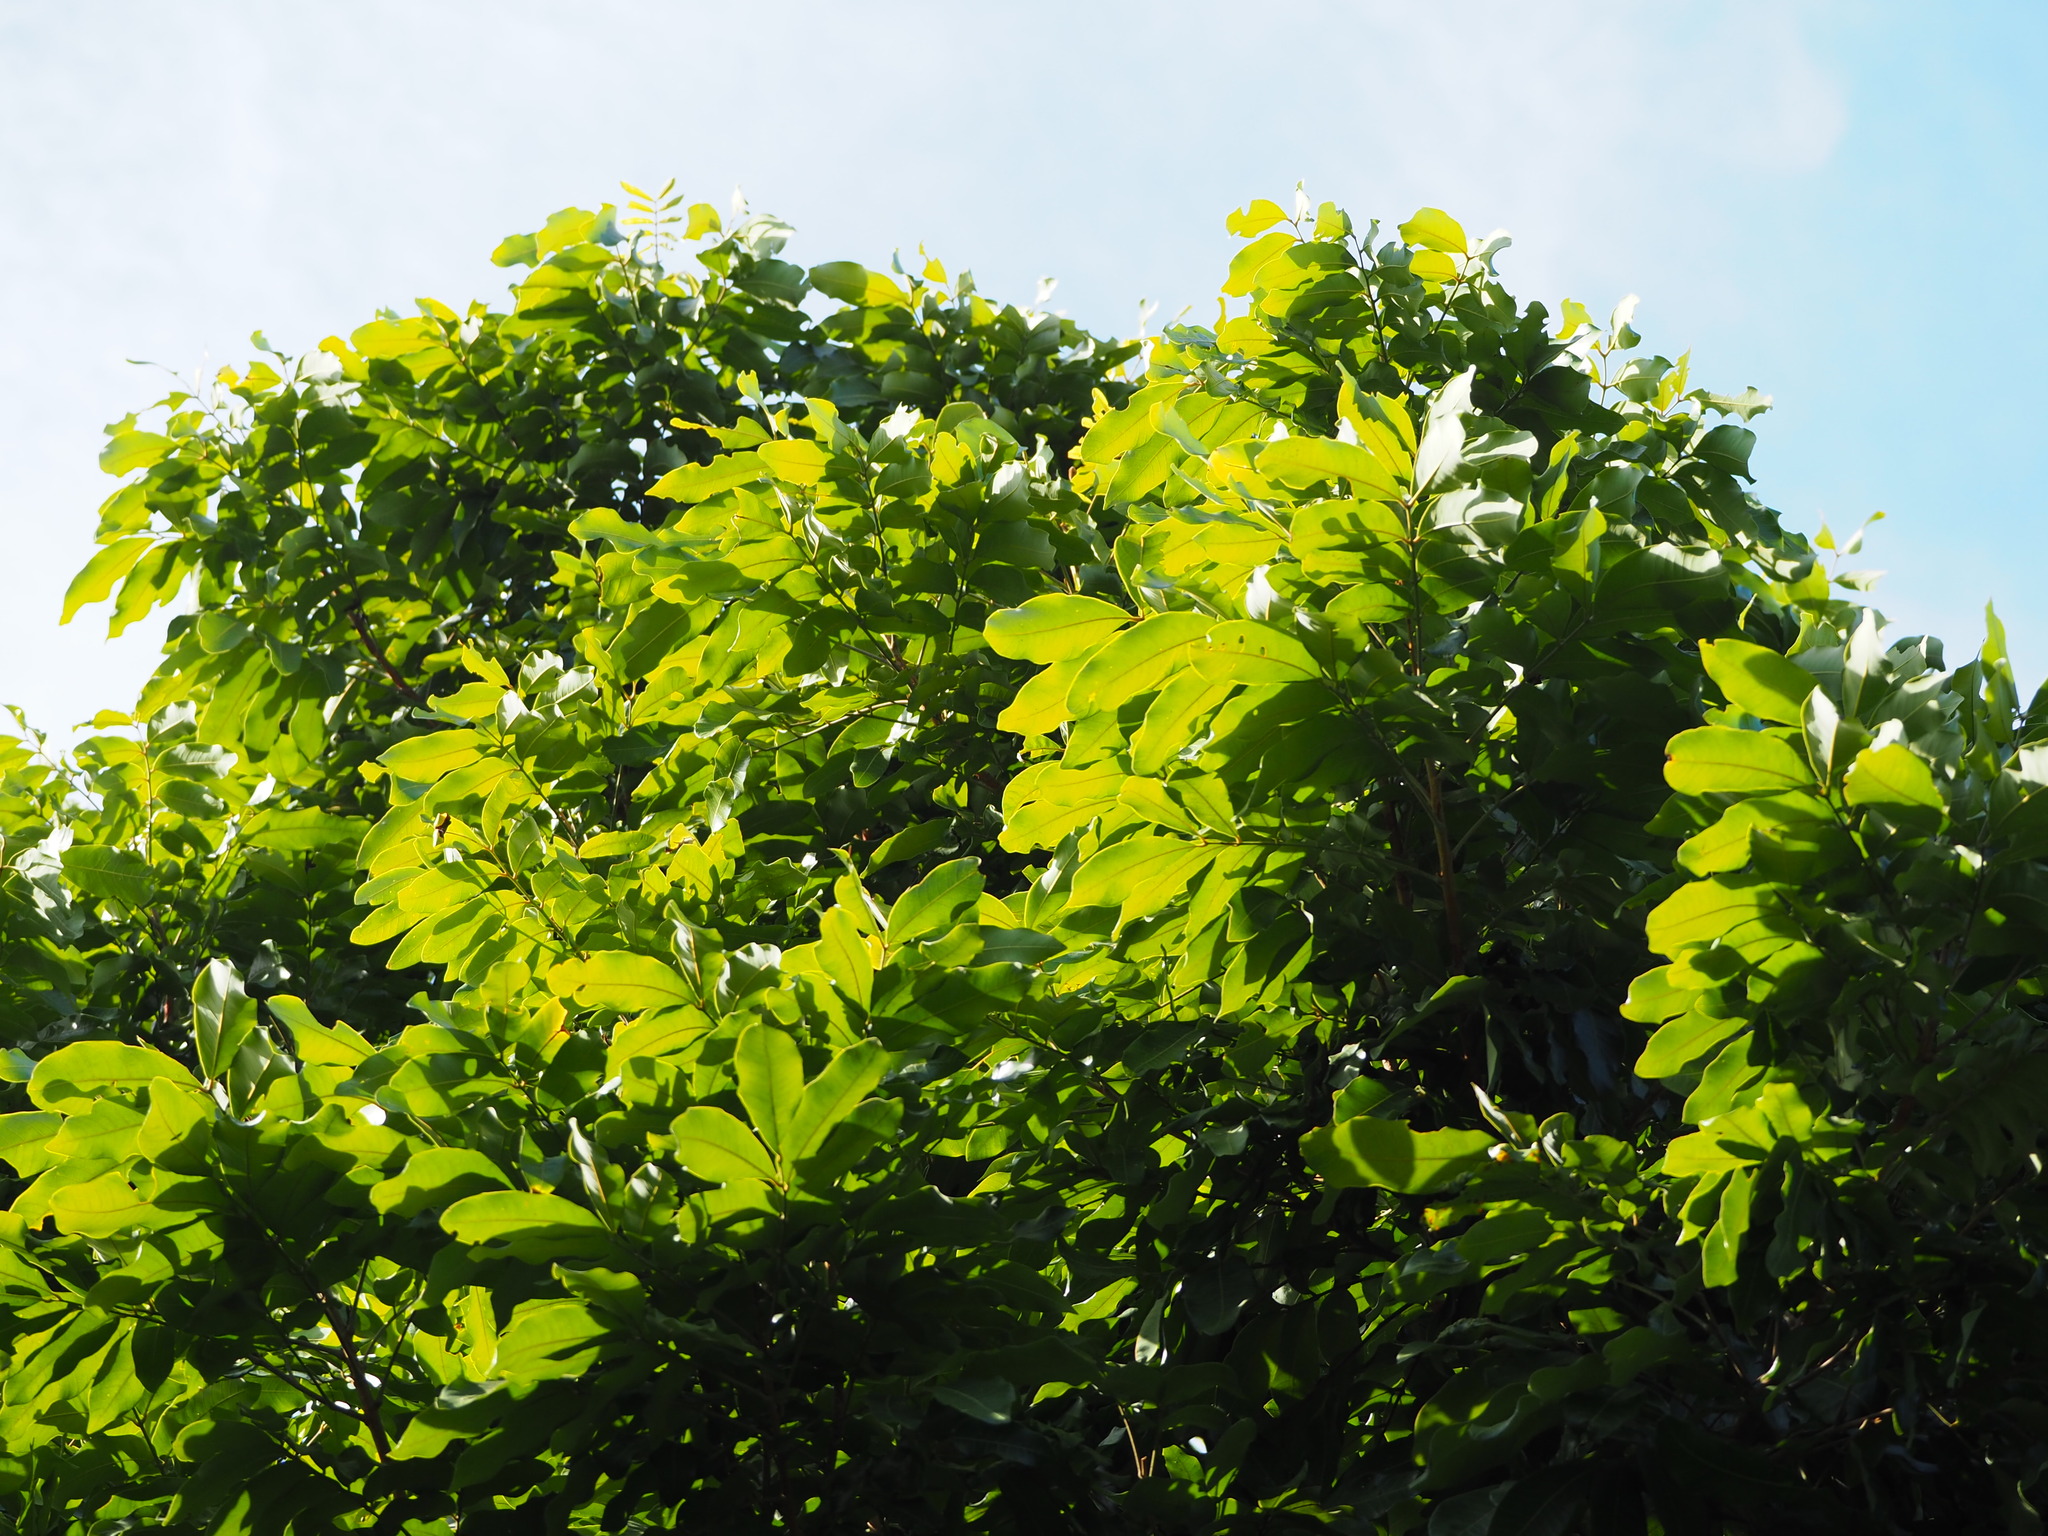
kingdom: Plantae
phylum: Tracheophyta
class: Magnoliopsida
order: Sapindales
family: Sapindaceae
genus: Dimocarpus
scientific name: Dimocarpus longan
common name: Longan
